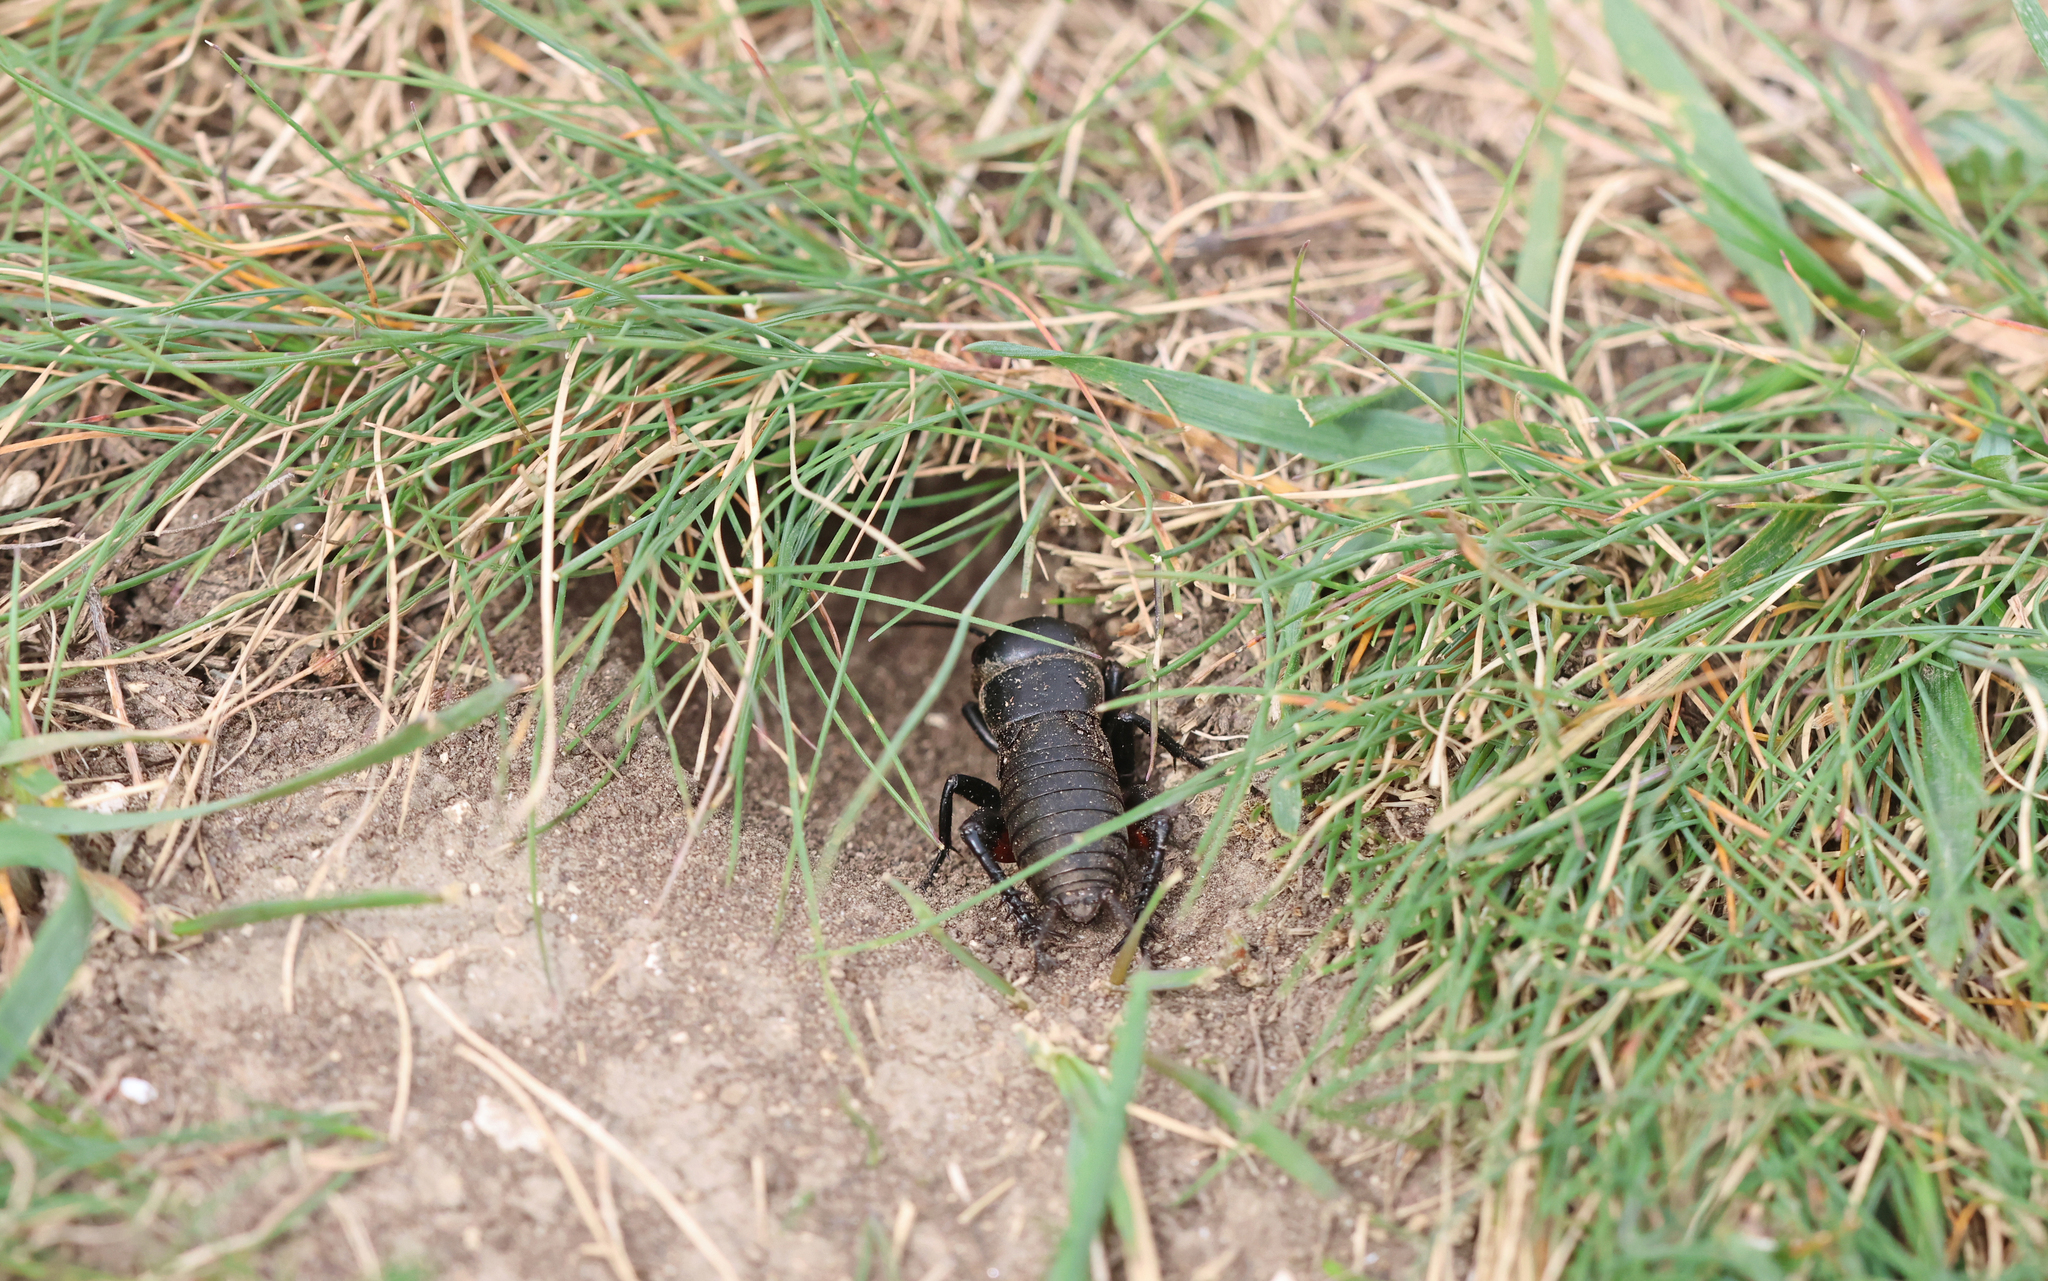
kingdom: Animalia
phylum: Arthropoda
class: Insecta
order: Orthoptera
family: Gryllidae
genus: Gryllus
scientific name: Gryllus campestris
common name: Field cricket
